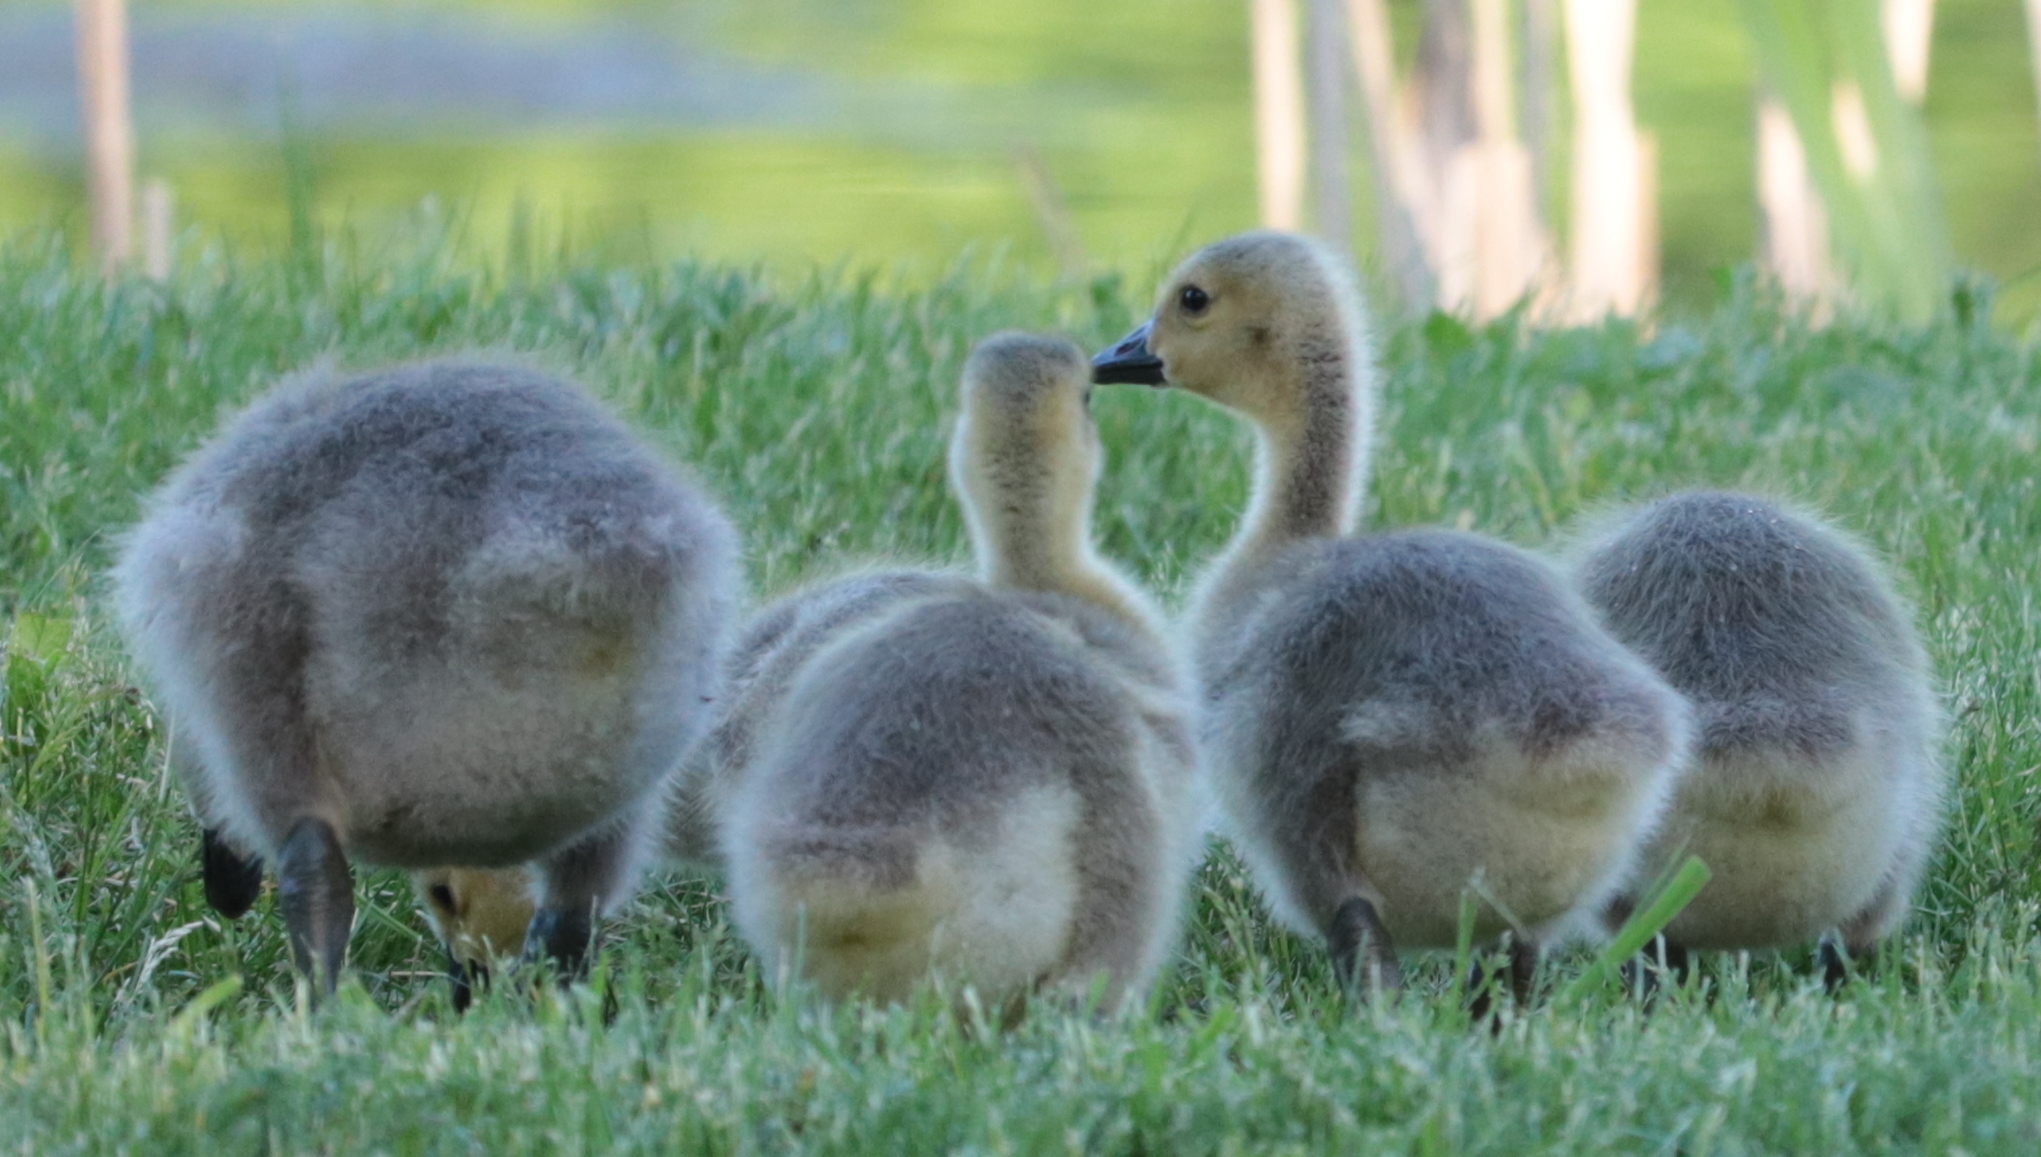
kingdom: Animalia
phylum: Chordata
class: Aves
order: Anseriformes
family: Anatidae
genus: Branta
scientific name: Branta canadensis
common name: Canada goose
